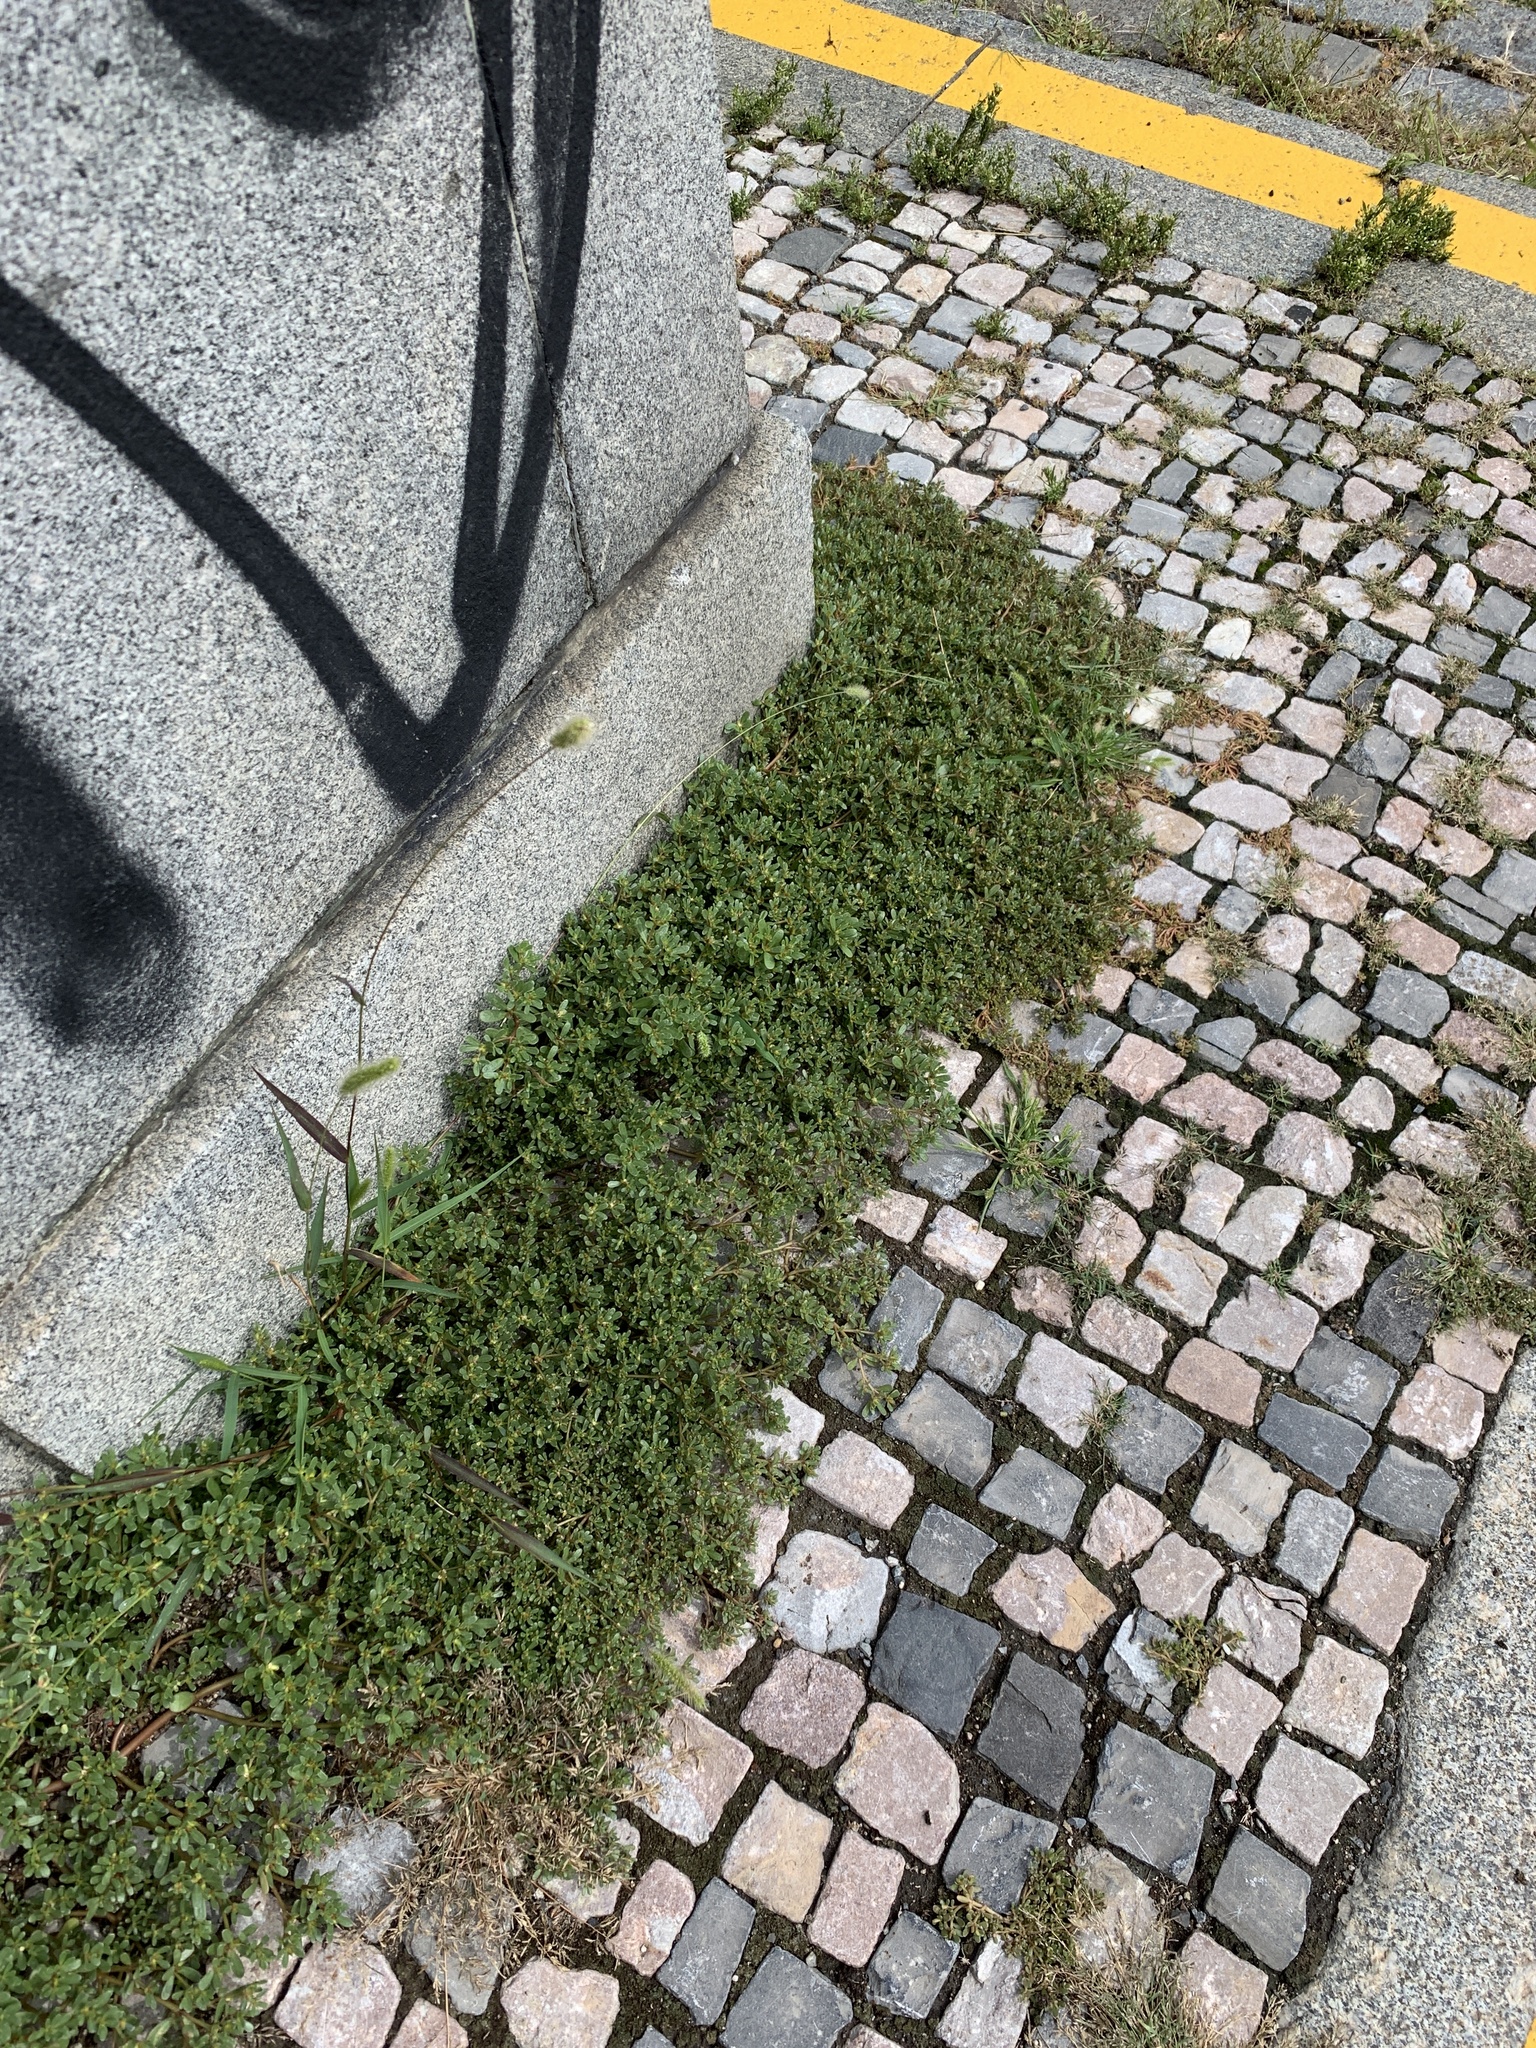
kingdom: Plantae
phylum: Tracheophyta
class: Magnoliopsida
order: Caryophyllales
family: Portulacaceae
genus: Portulaca
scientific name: Portulaca oleracea
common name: Common purslane
